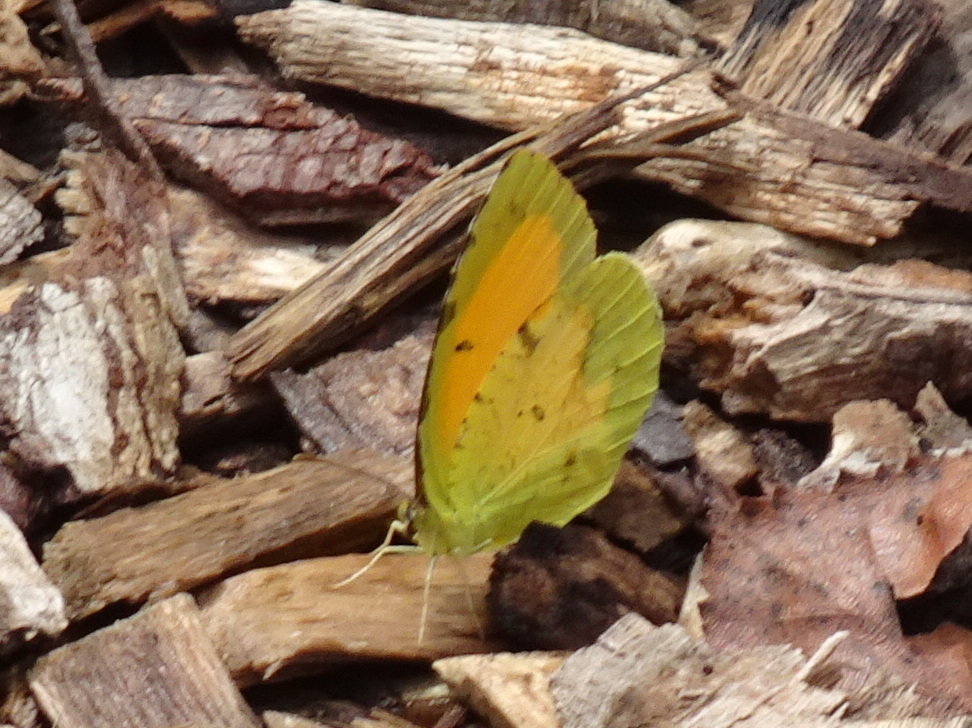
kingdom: Animalia
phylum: Arthropoda
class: Insecta
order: Lepidoptera
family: Pieridae
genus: Abaeis
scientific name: Abaeis nicippe
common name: Sleepy orange
